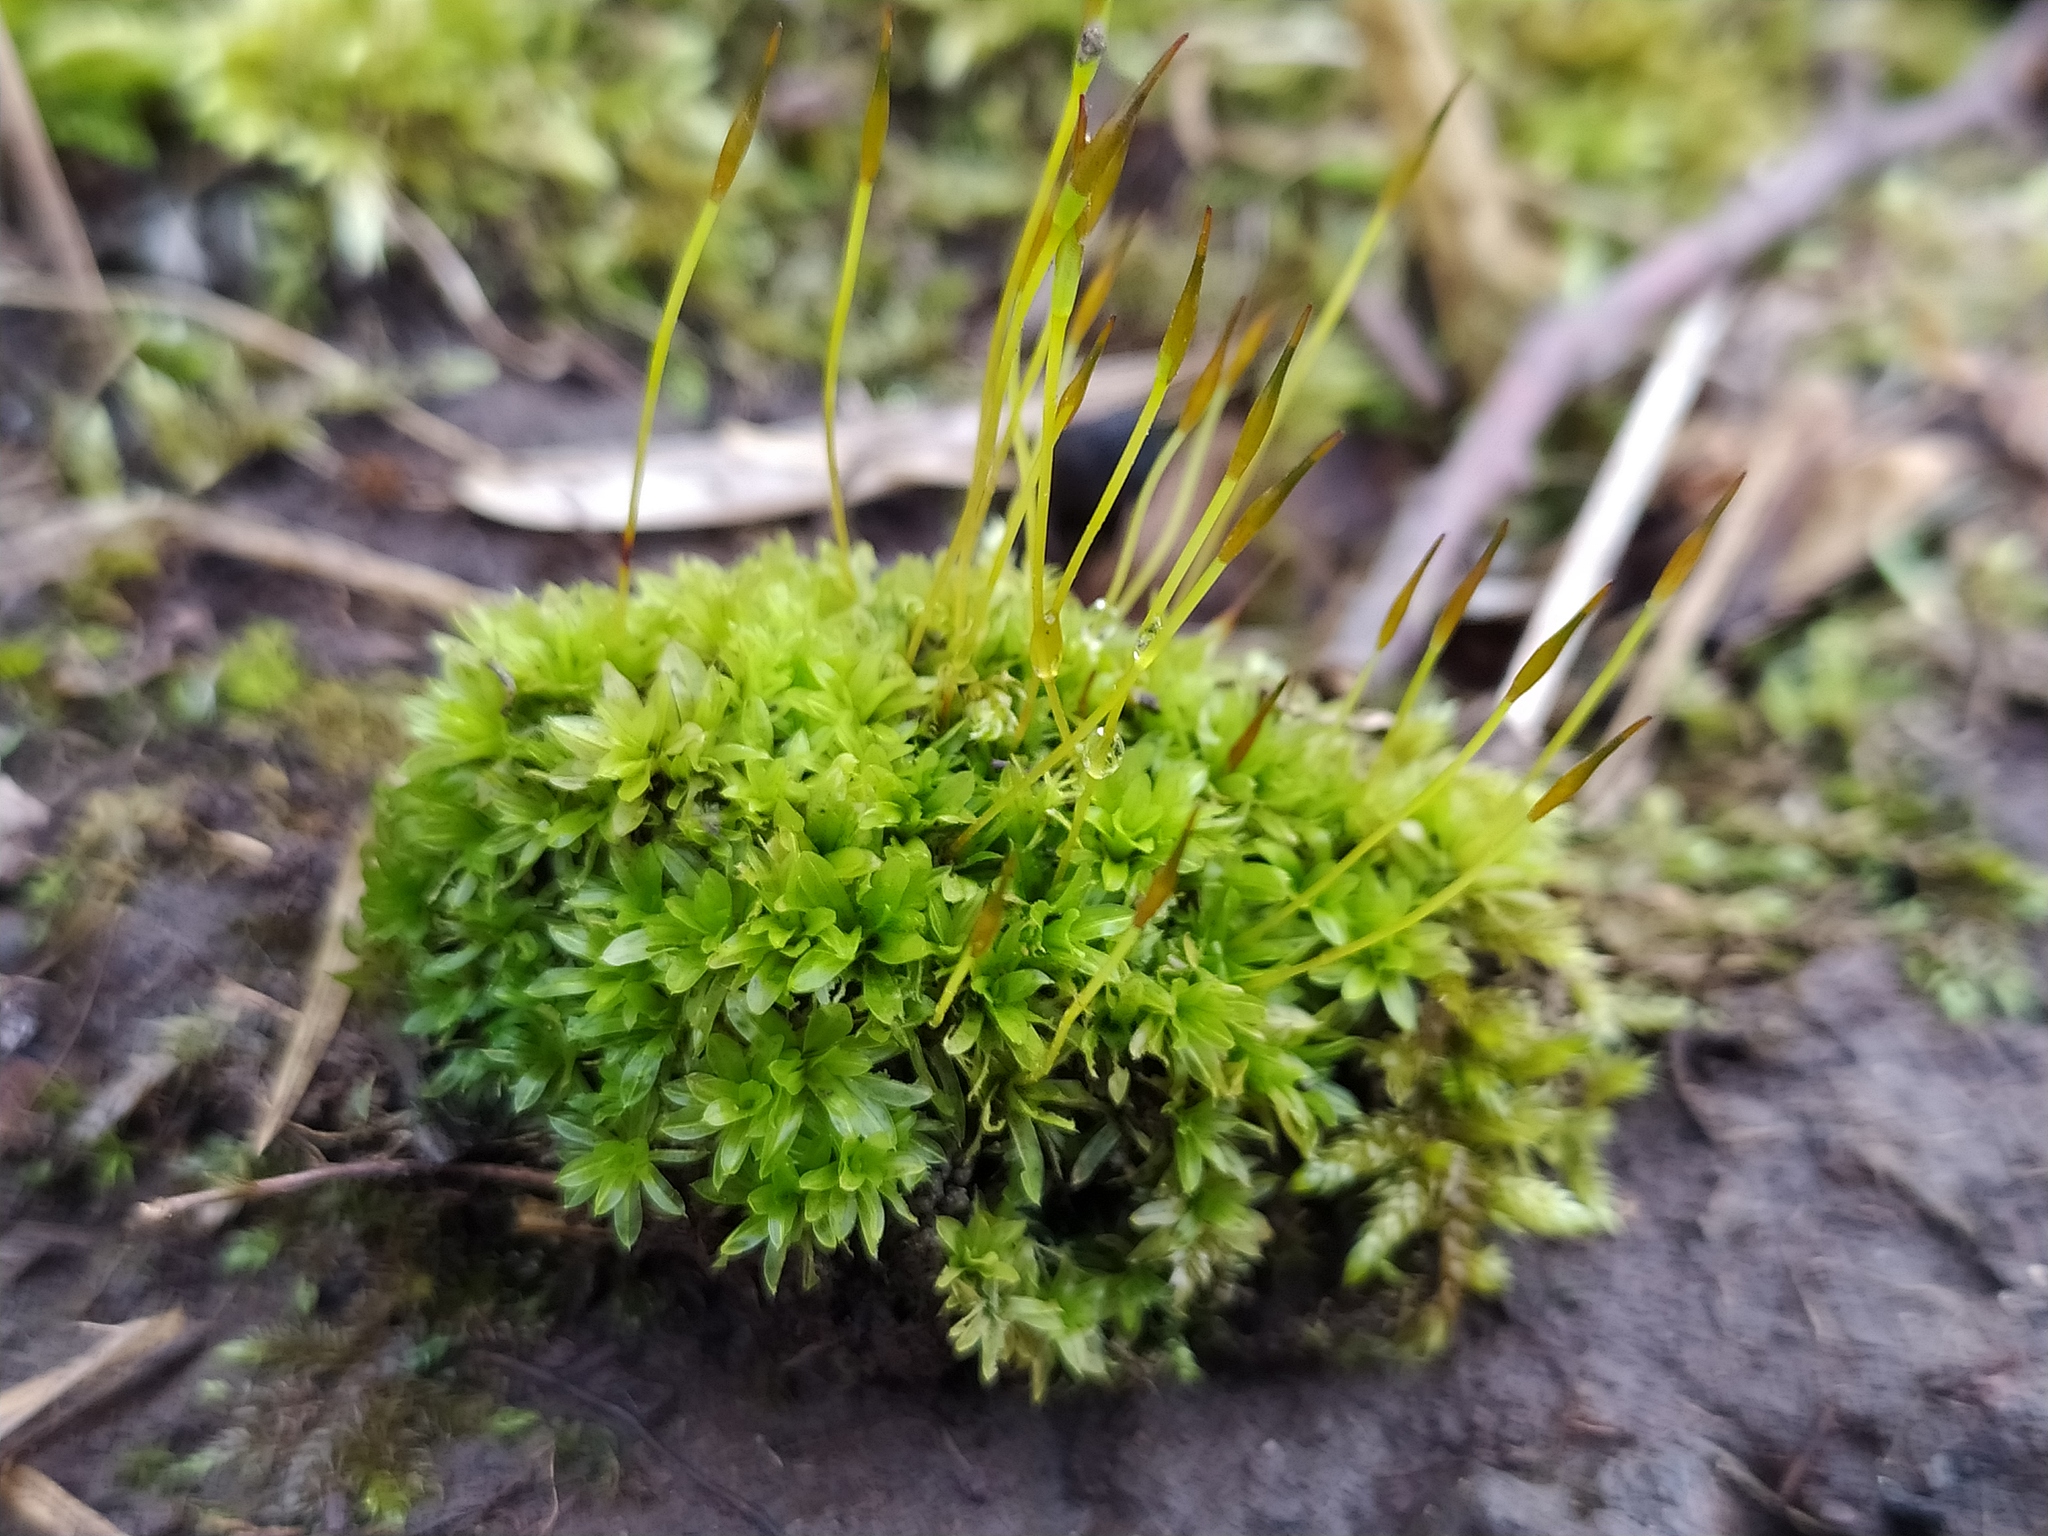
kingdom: Plantae
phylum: Bryophyta
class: Bryopsida
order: Pottiales
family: Pottiaceae
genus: Tortula
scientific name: Tortula subulata
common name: Upright screw-moss
